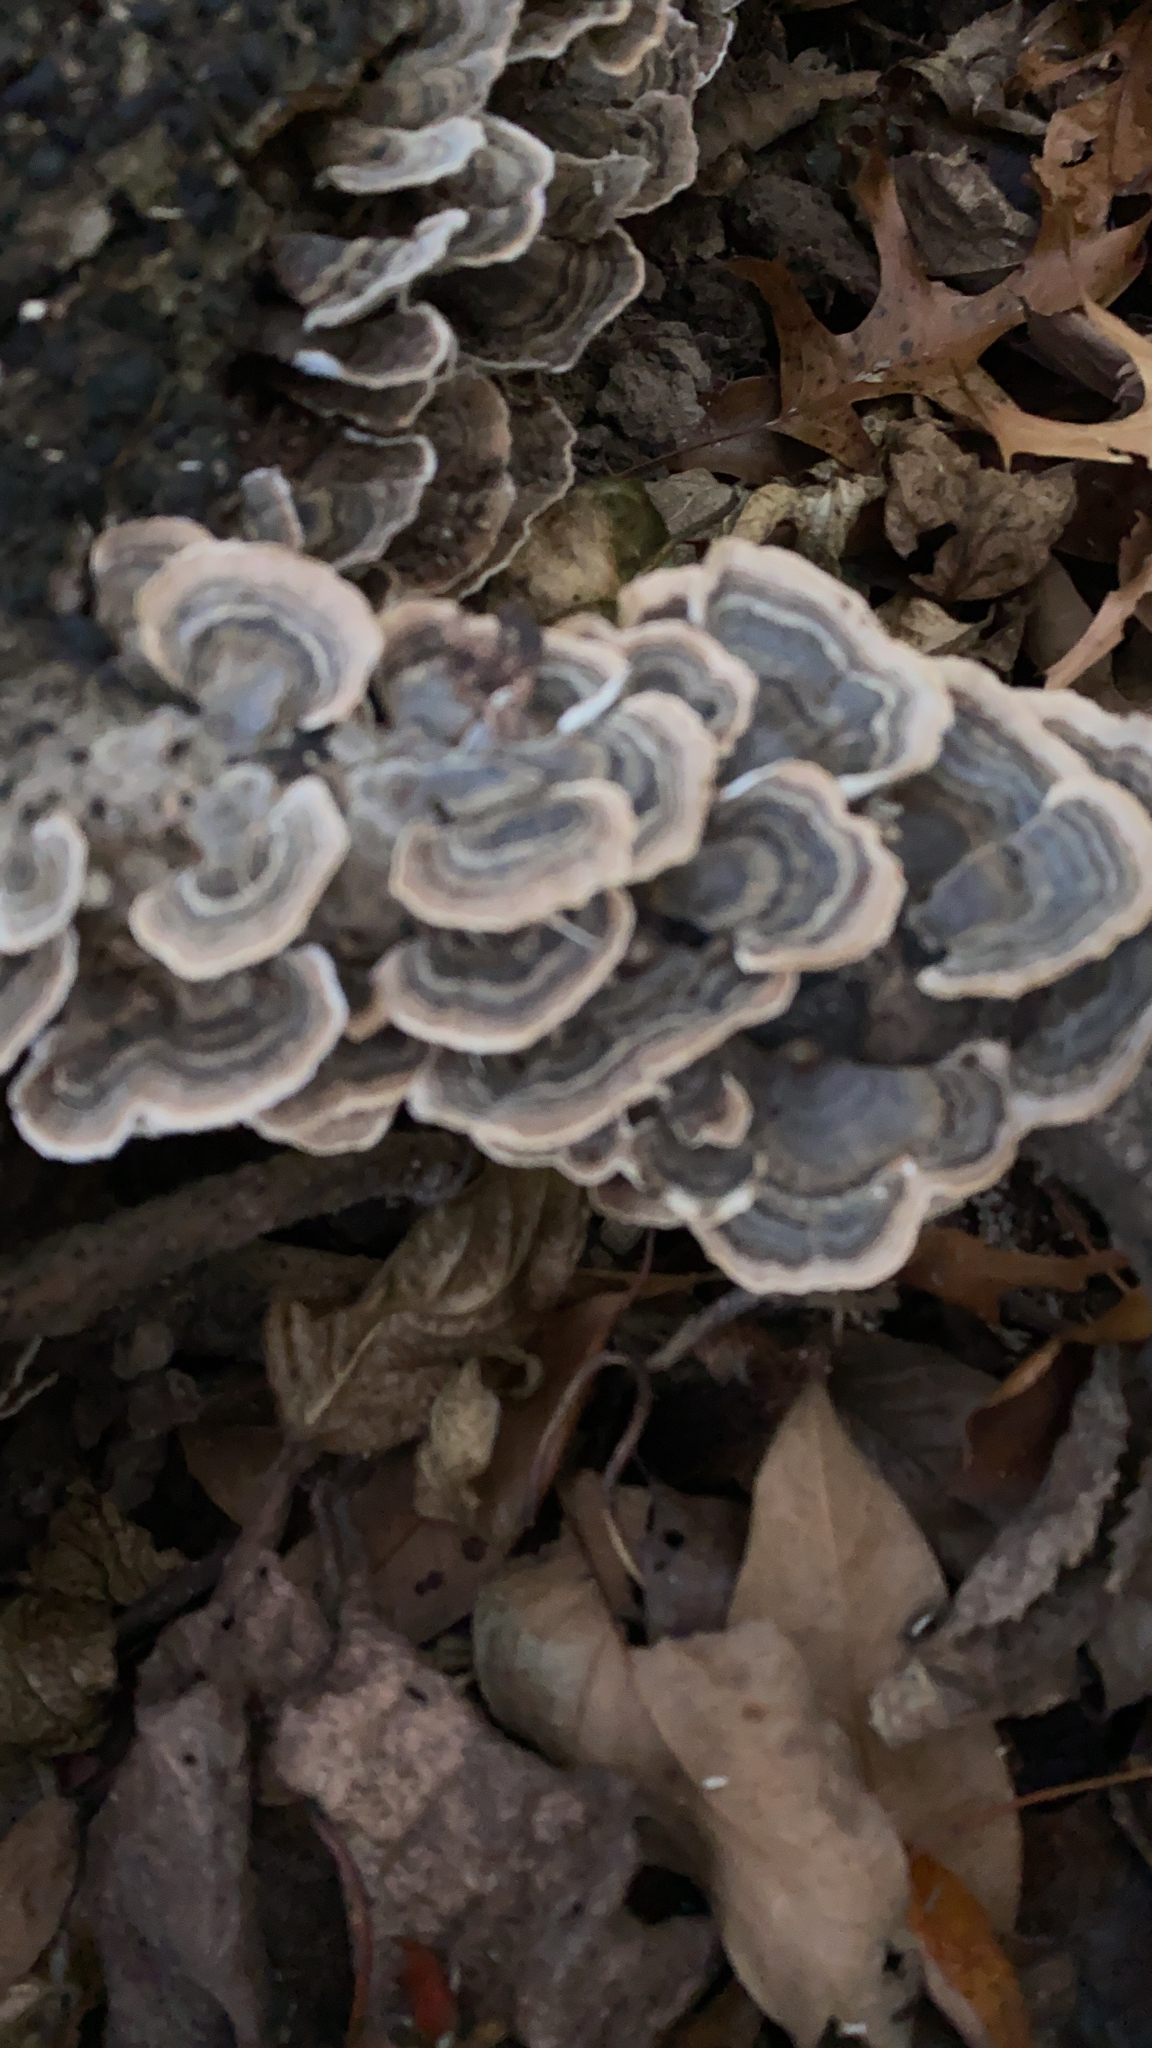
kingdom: Fungi
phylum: Basidiomycota
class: Agaricomycetes
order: Polyporales
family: Polyporaceae
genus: Trametes
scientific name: Trametes versicolor
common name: Turkeytail
